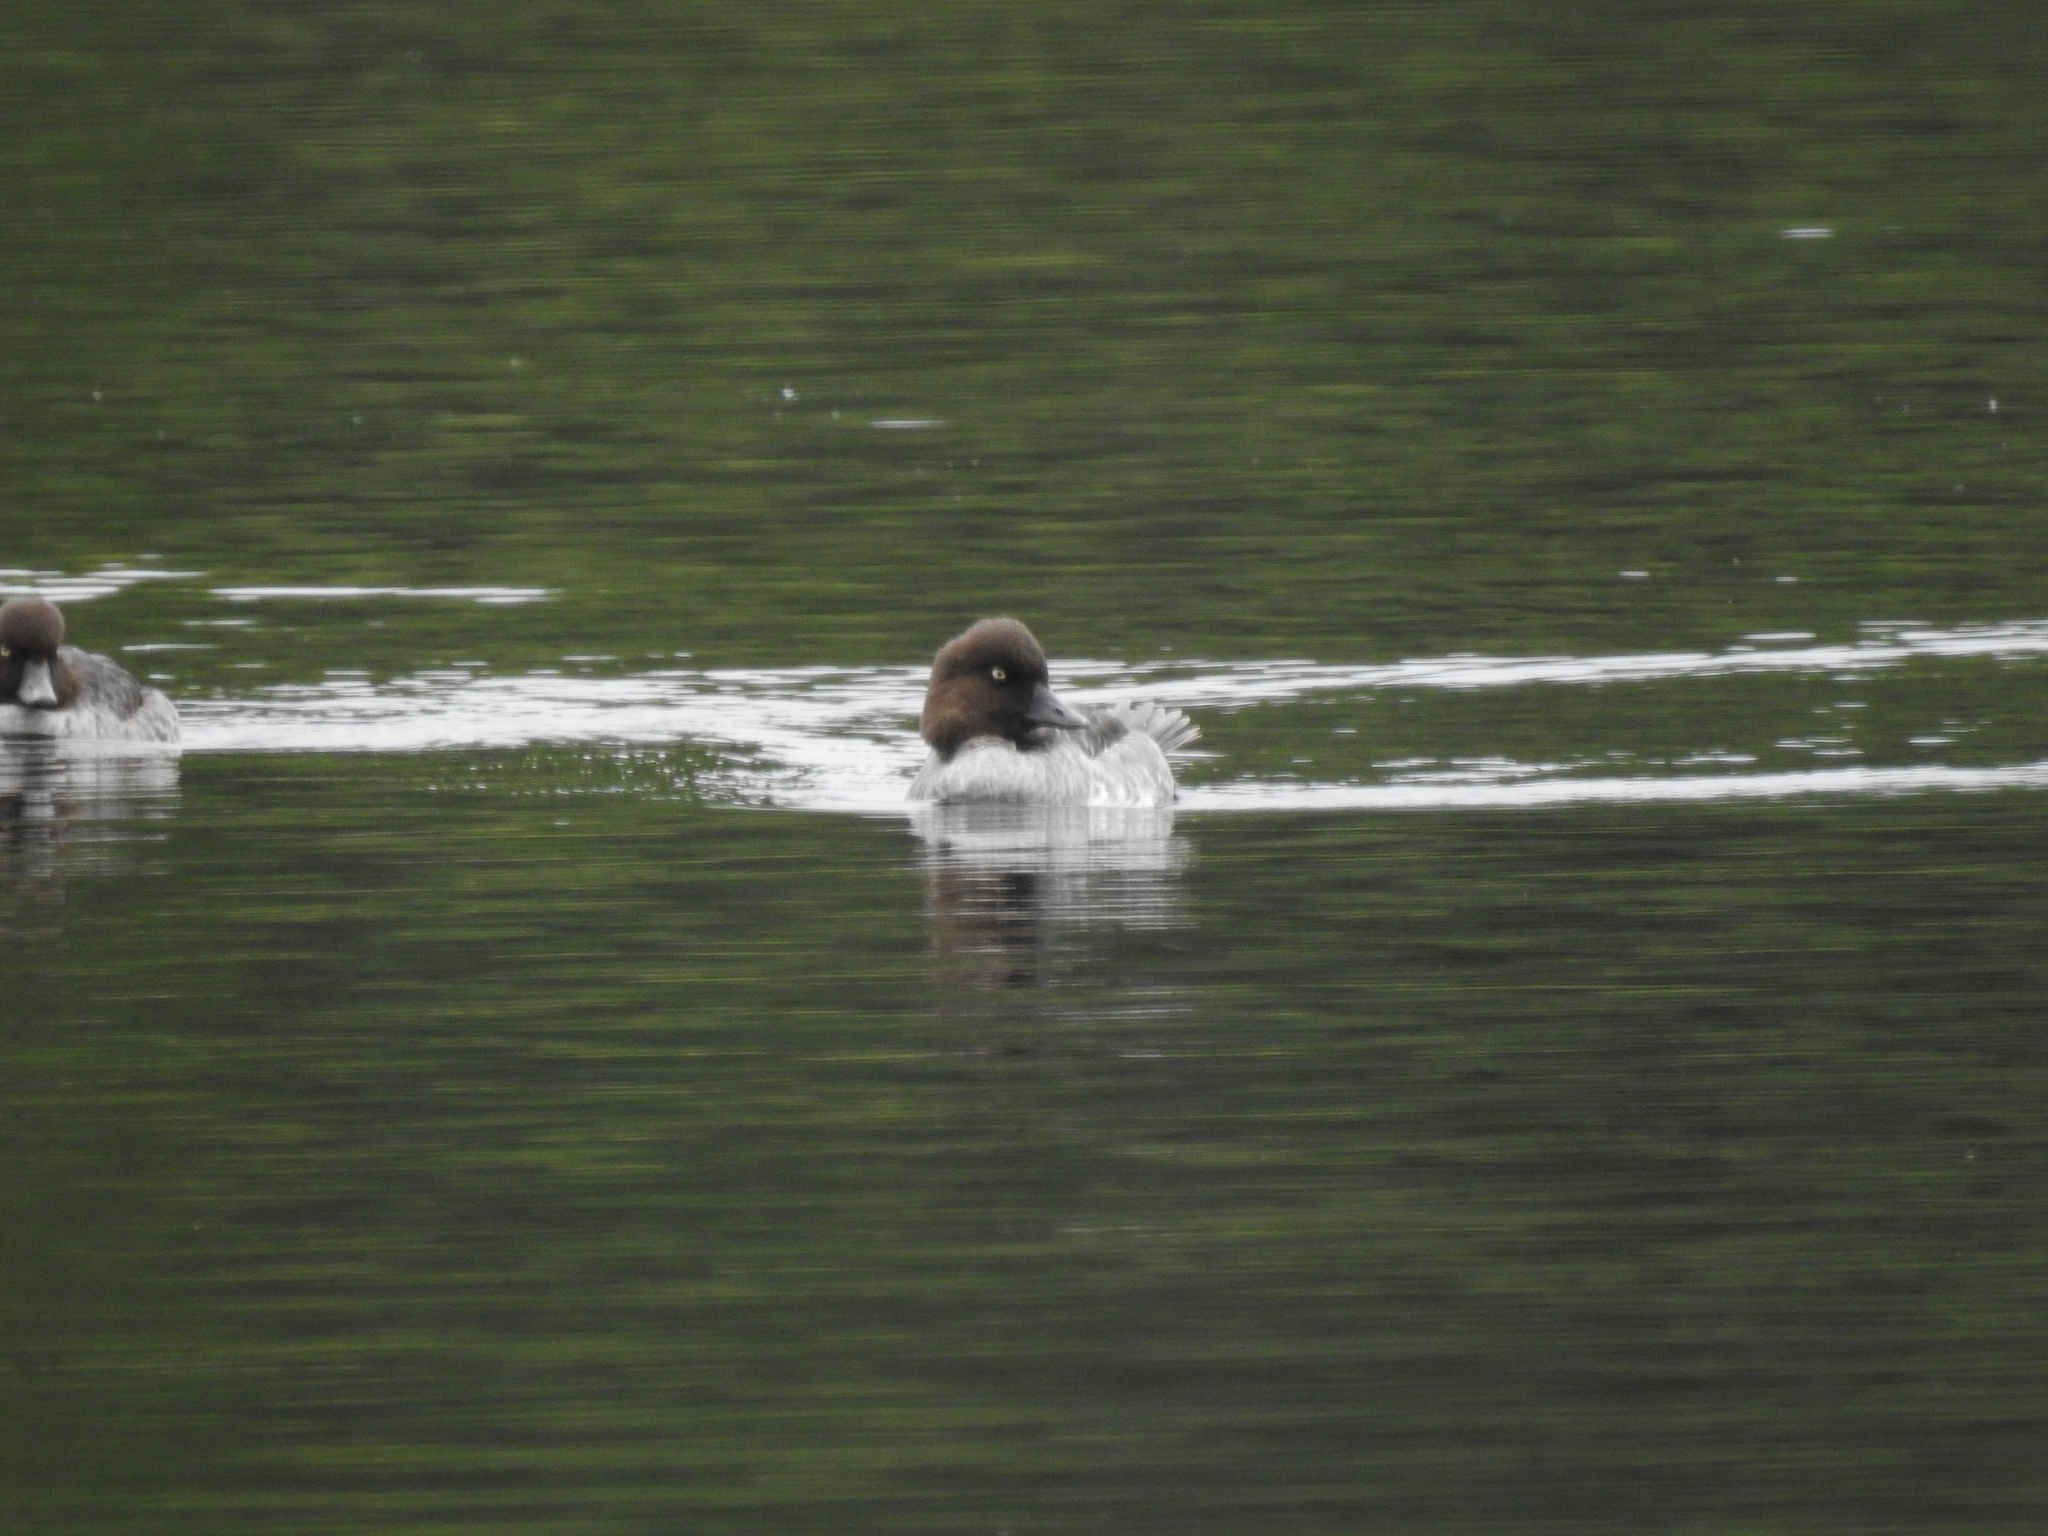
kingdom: Animalia
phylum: Chordata
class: Aves
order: Anseriformes
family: Anatidae
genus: Bucephala
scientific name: Bucephala clangula
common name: Common goldeneye
